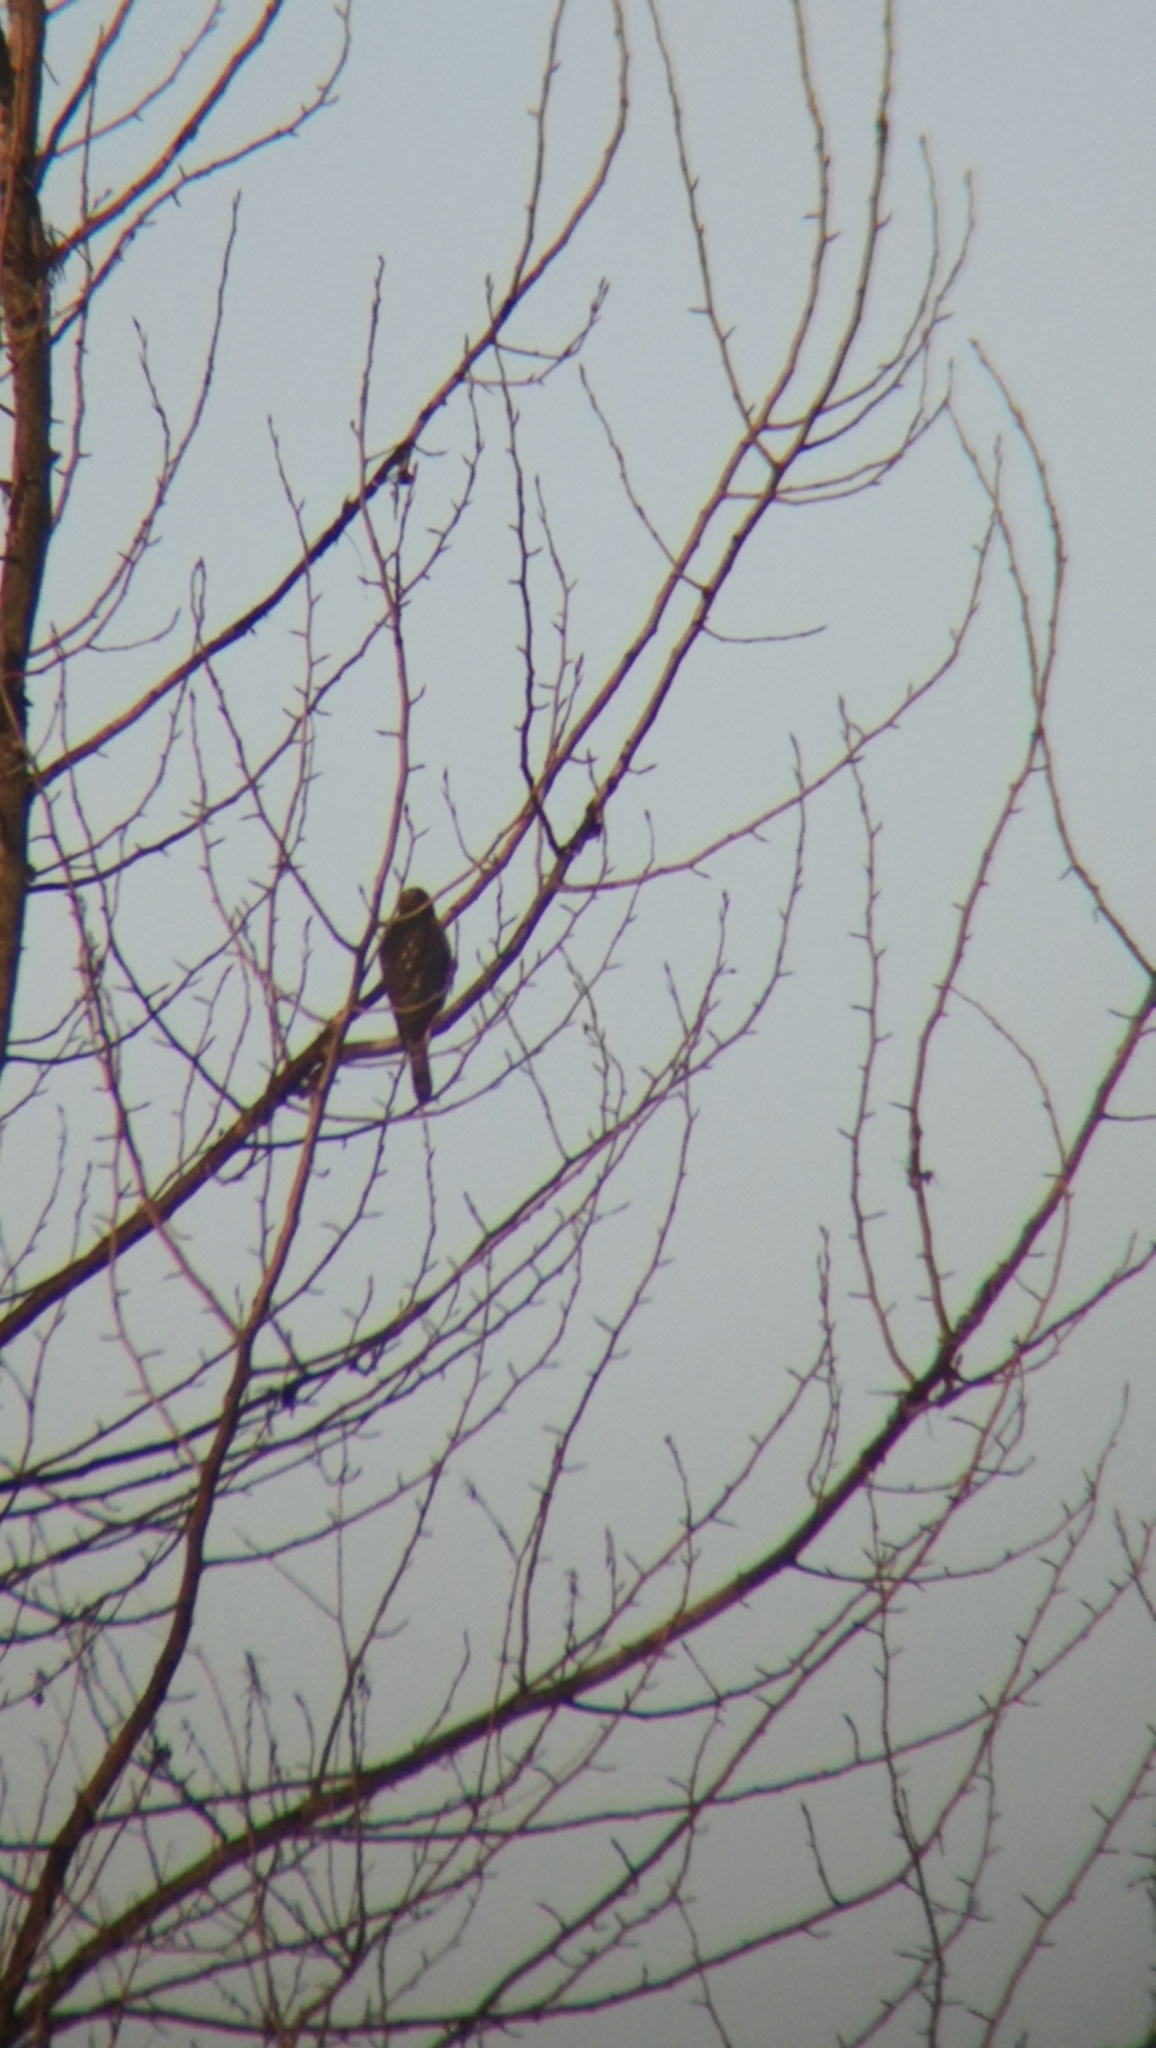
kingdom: Animalia
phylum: Chordata
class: Aves
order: Accipitriformes
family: Accipitridae
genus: Buteo
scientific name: Buteo jamaicensis
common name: Red-tailed hawk
